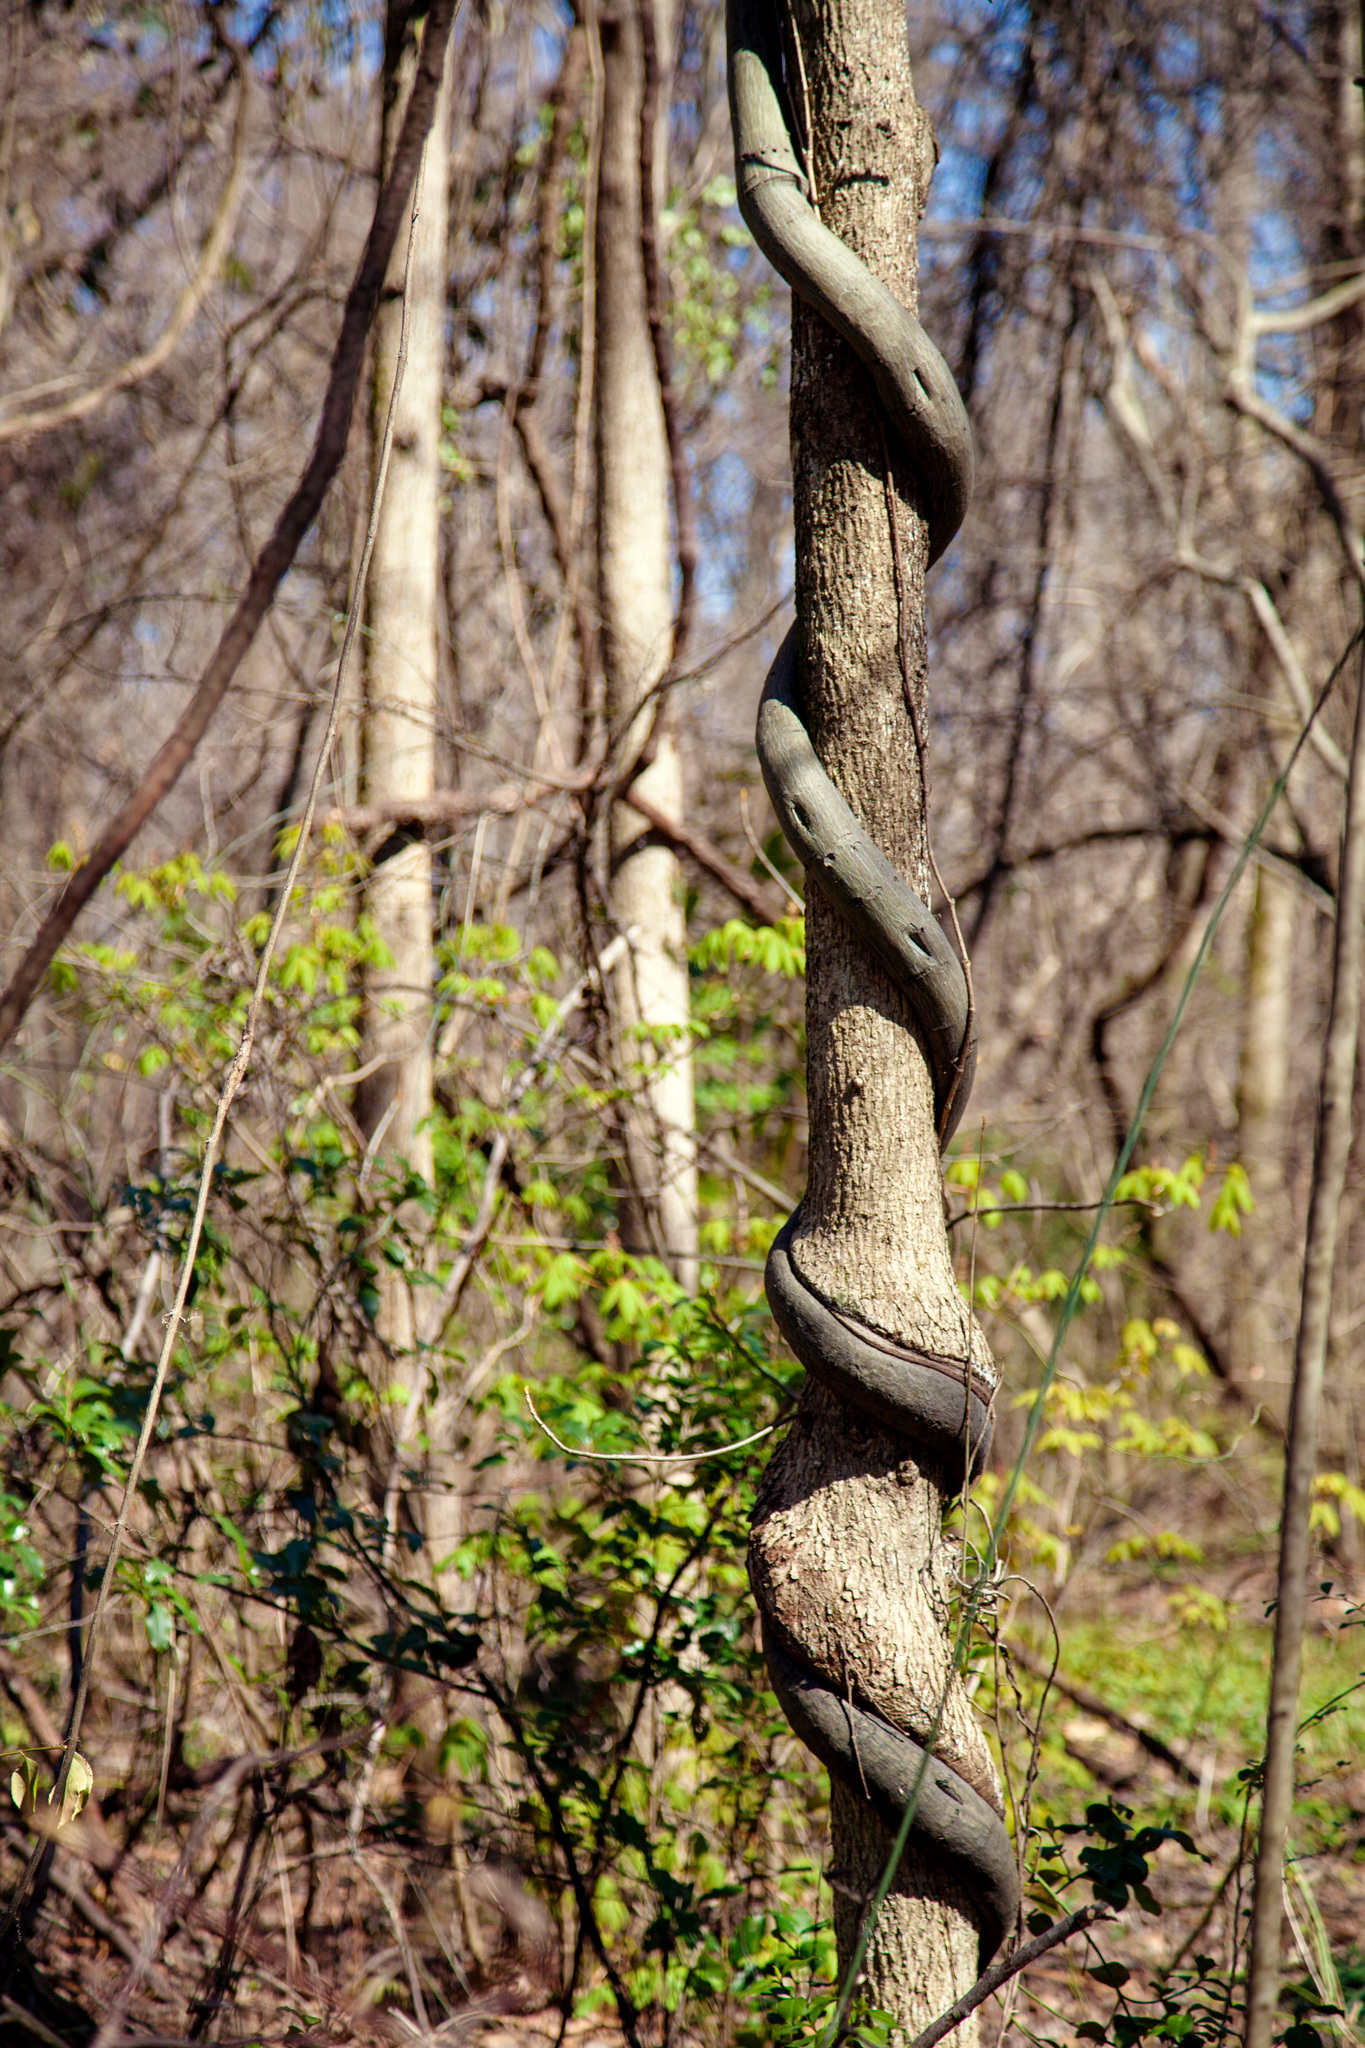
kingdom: Plantae
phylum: Tracheophyta
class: Magnoliopsida
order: Rosales
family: Rhamnaceae
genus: Berchemia
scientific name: Berchemia scandens
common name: Supplejack
